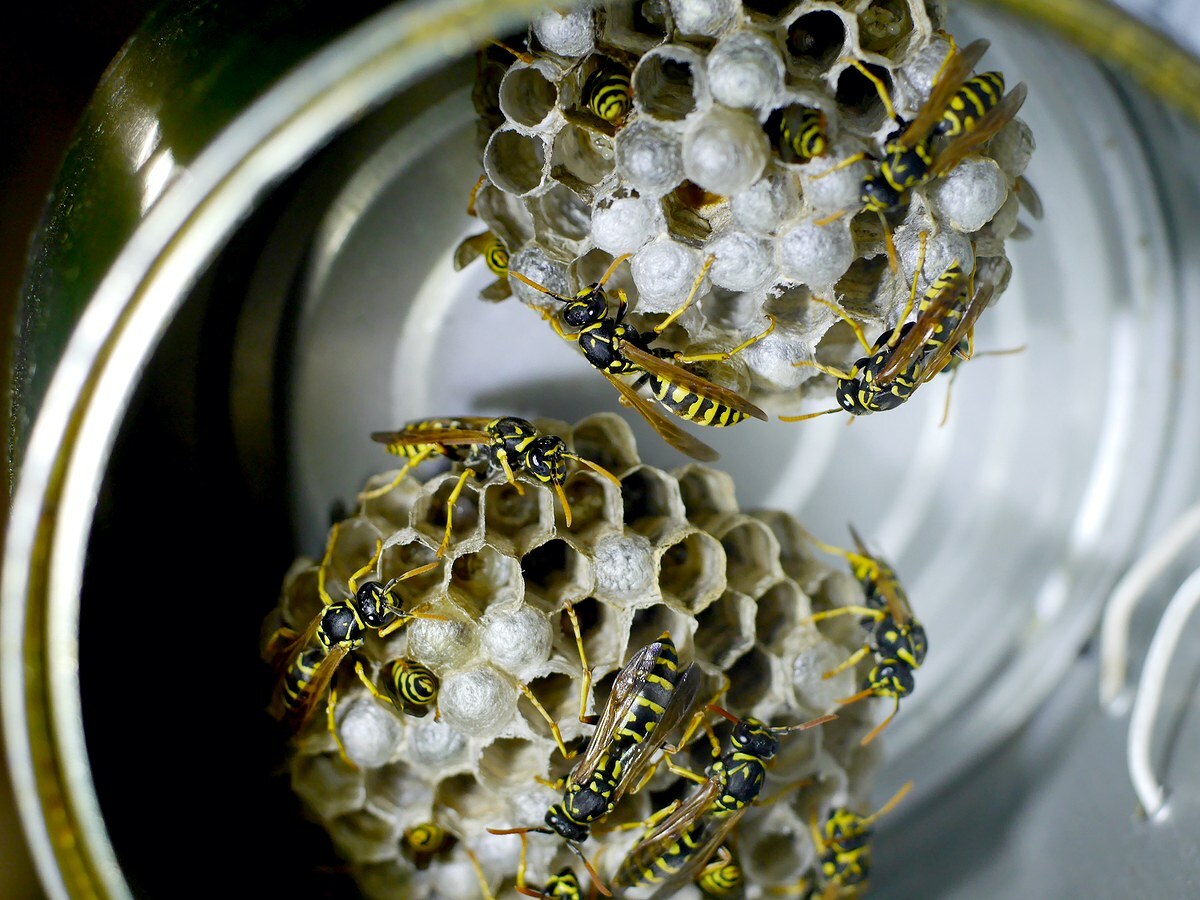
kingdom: Animalia
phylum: Arthropoda
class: Insecta
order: Hymenoptera
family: Eumenidae
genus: Polistes
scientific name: Polistes dominula
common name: Paper wasp
